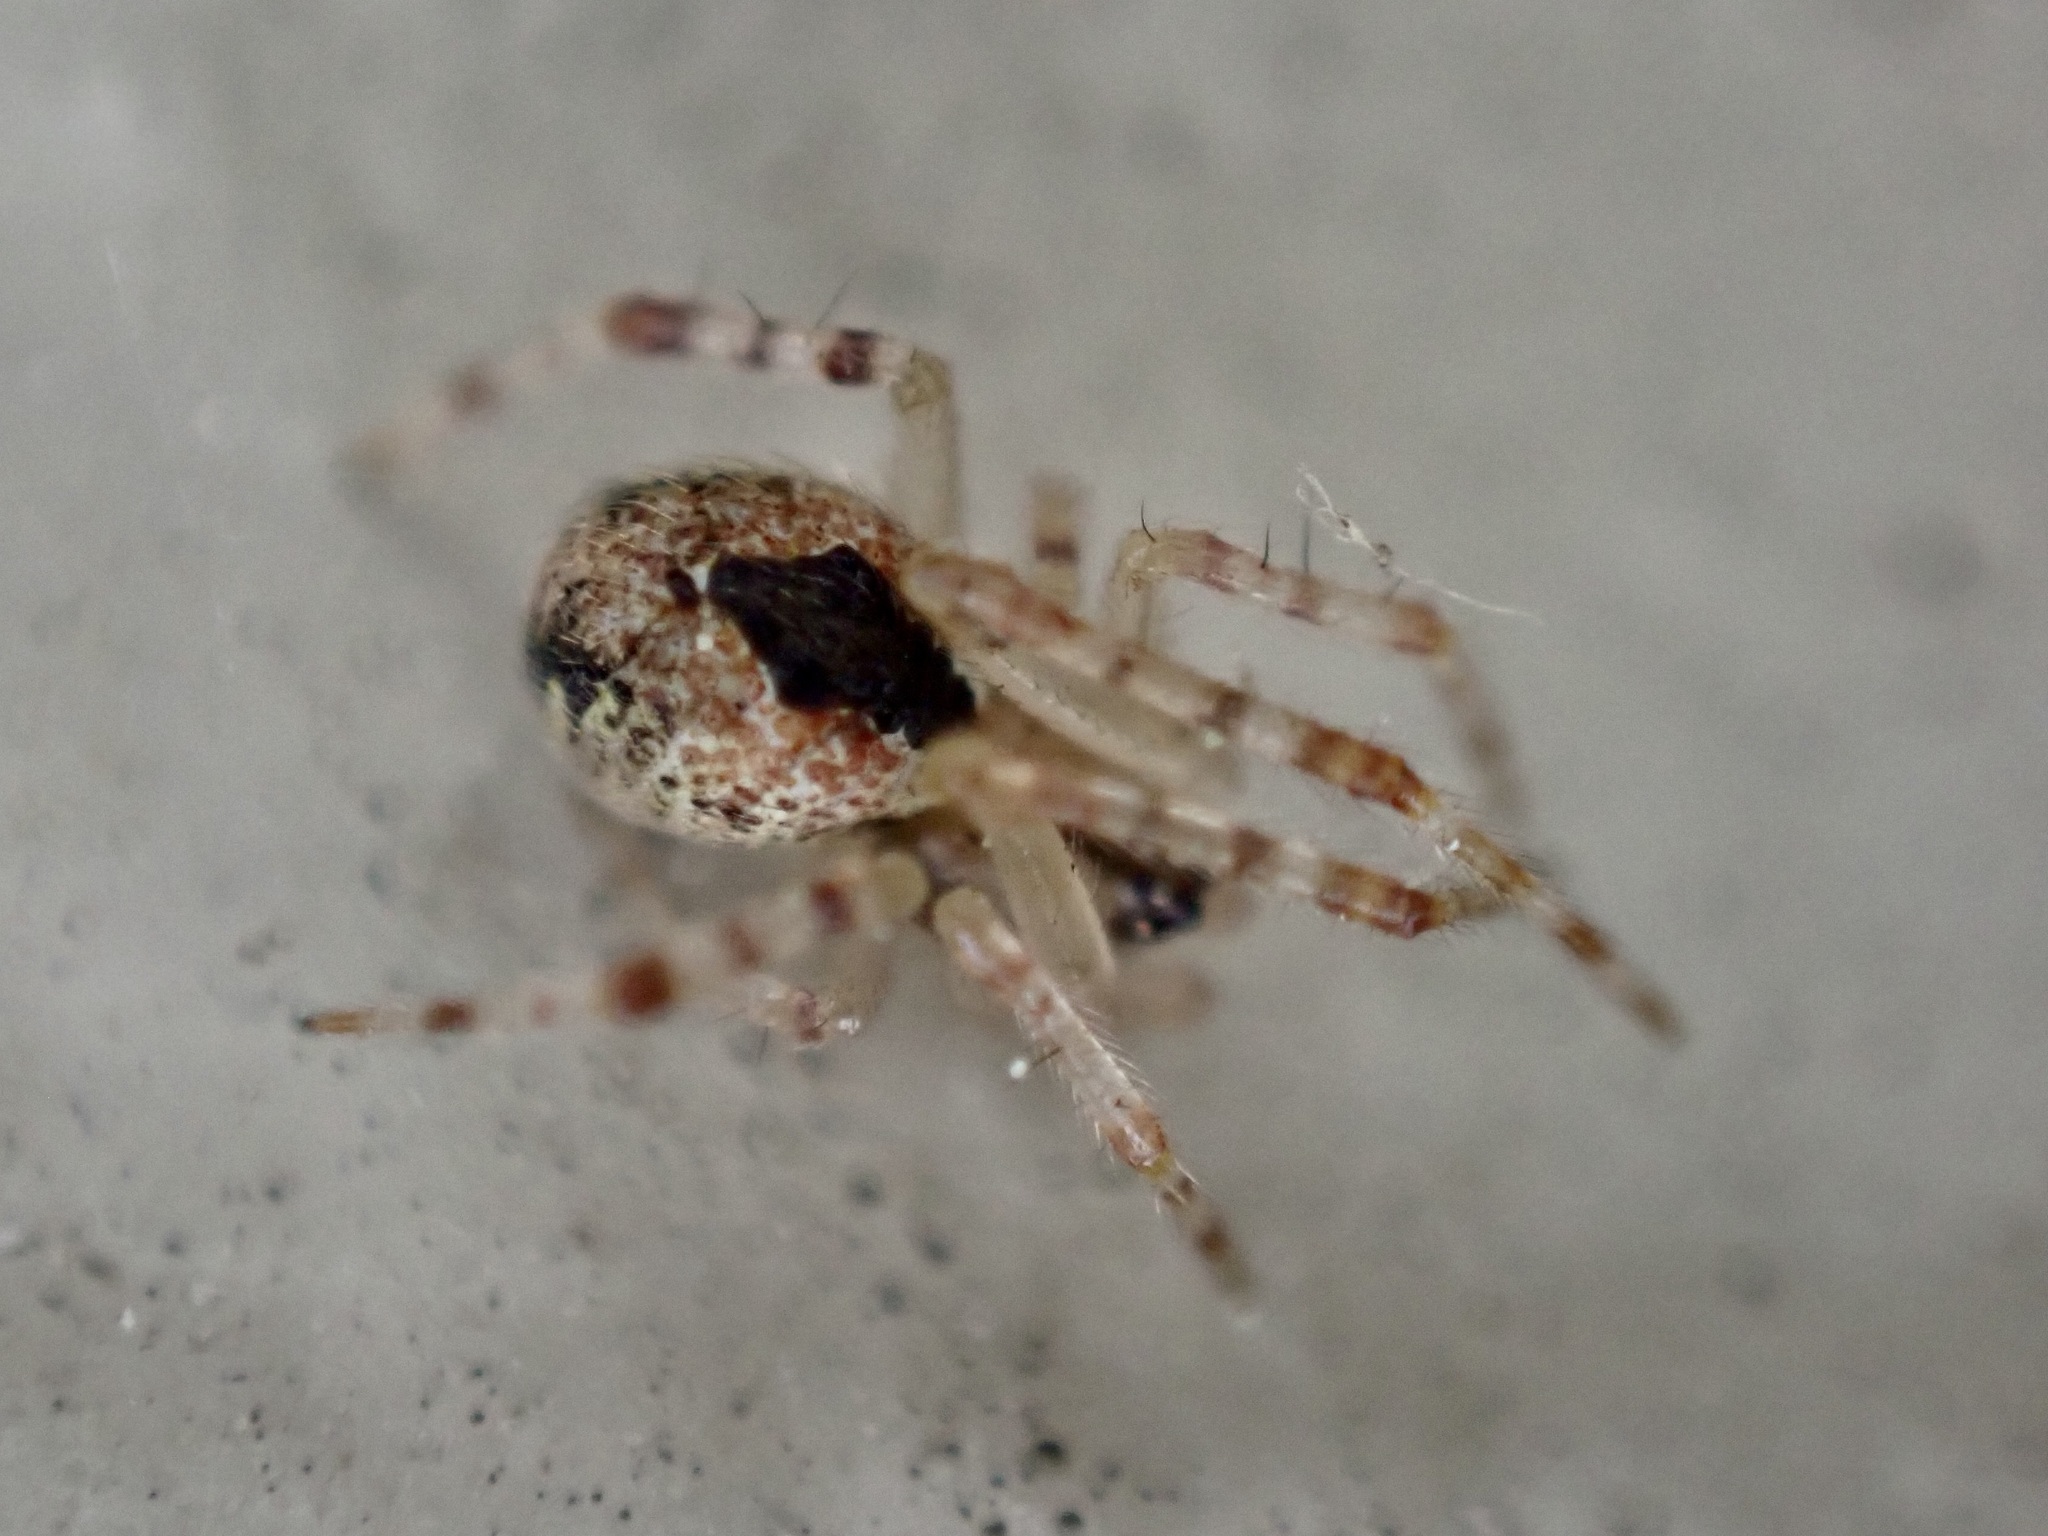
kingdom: Animalia
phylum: Arthropoda
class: Arachnida
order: Araneae
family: Theridiidae
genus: Cryptachaea
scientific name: Cryptachaea veruculata
